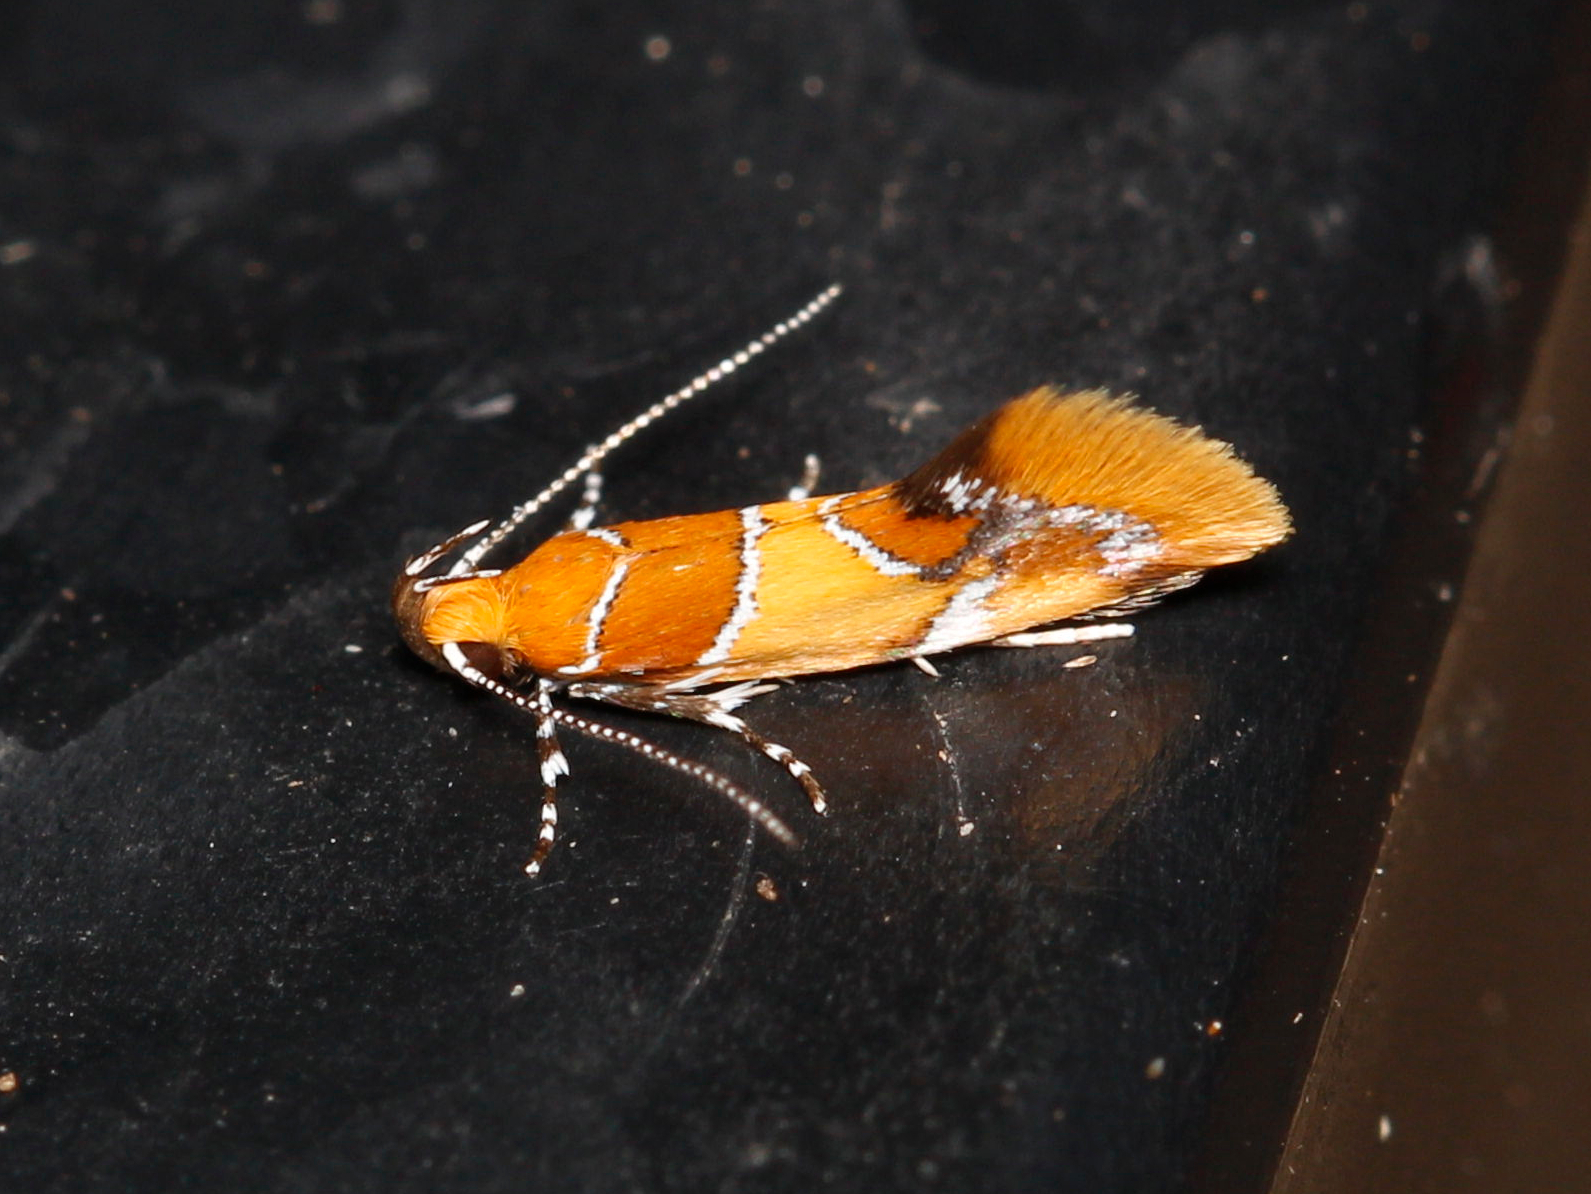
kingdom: Animalia
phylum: Arthropoda
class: Insecta
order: Lepidoptera
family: Oecophoridae
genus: Callima
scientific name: Callima argenticinctella
